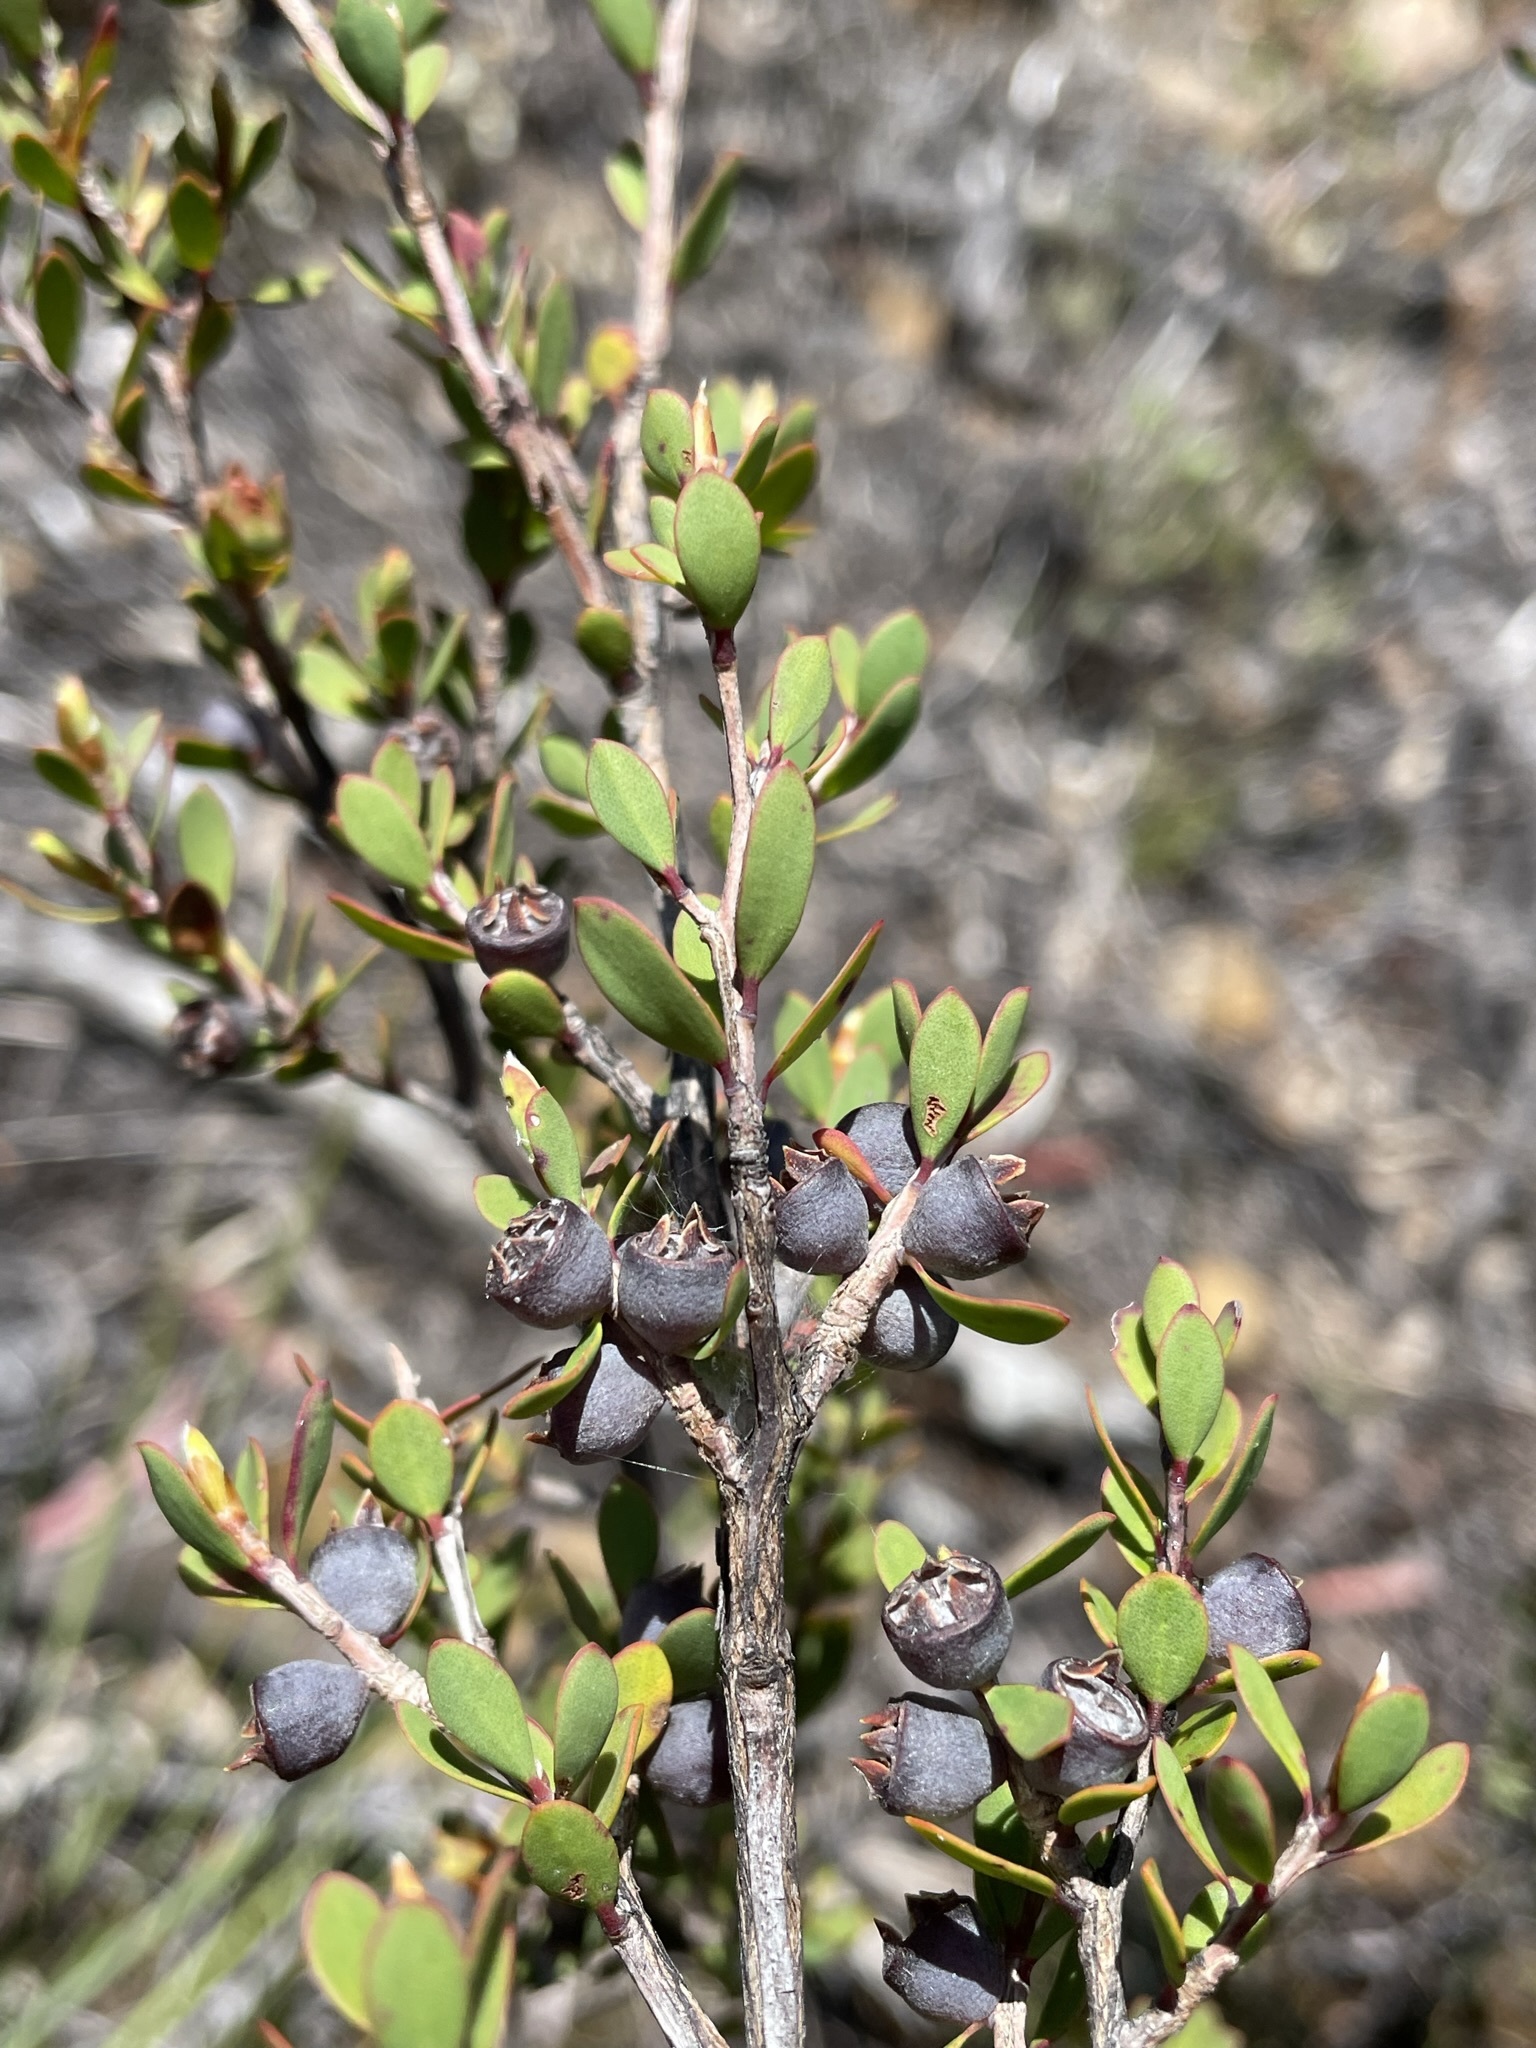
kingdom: Plantae
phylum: Tracheophyta
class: Magnoliopsida
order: Myrtales
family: Myrtaceae
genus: Leptospermum
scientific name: Leptospermum glaucescens
